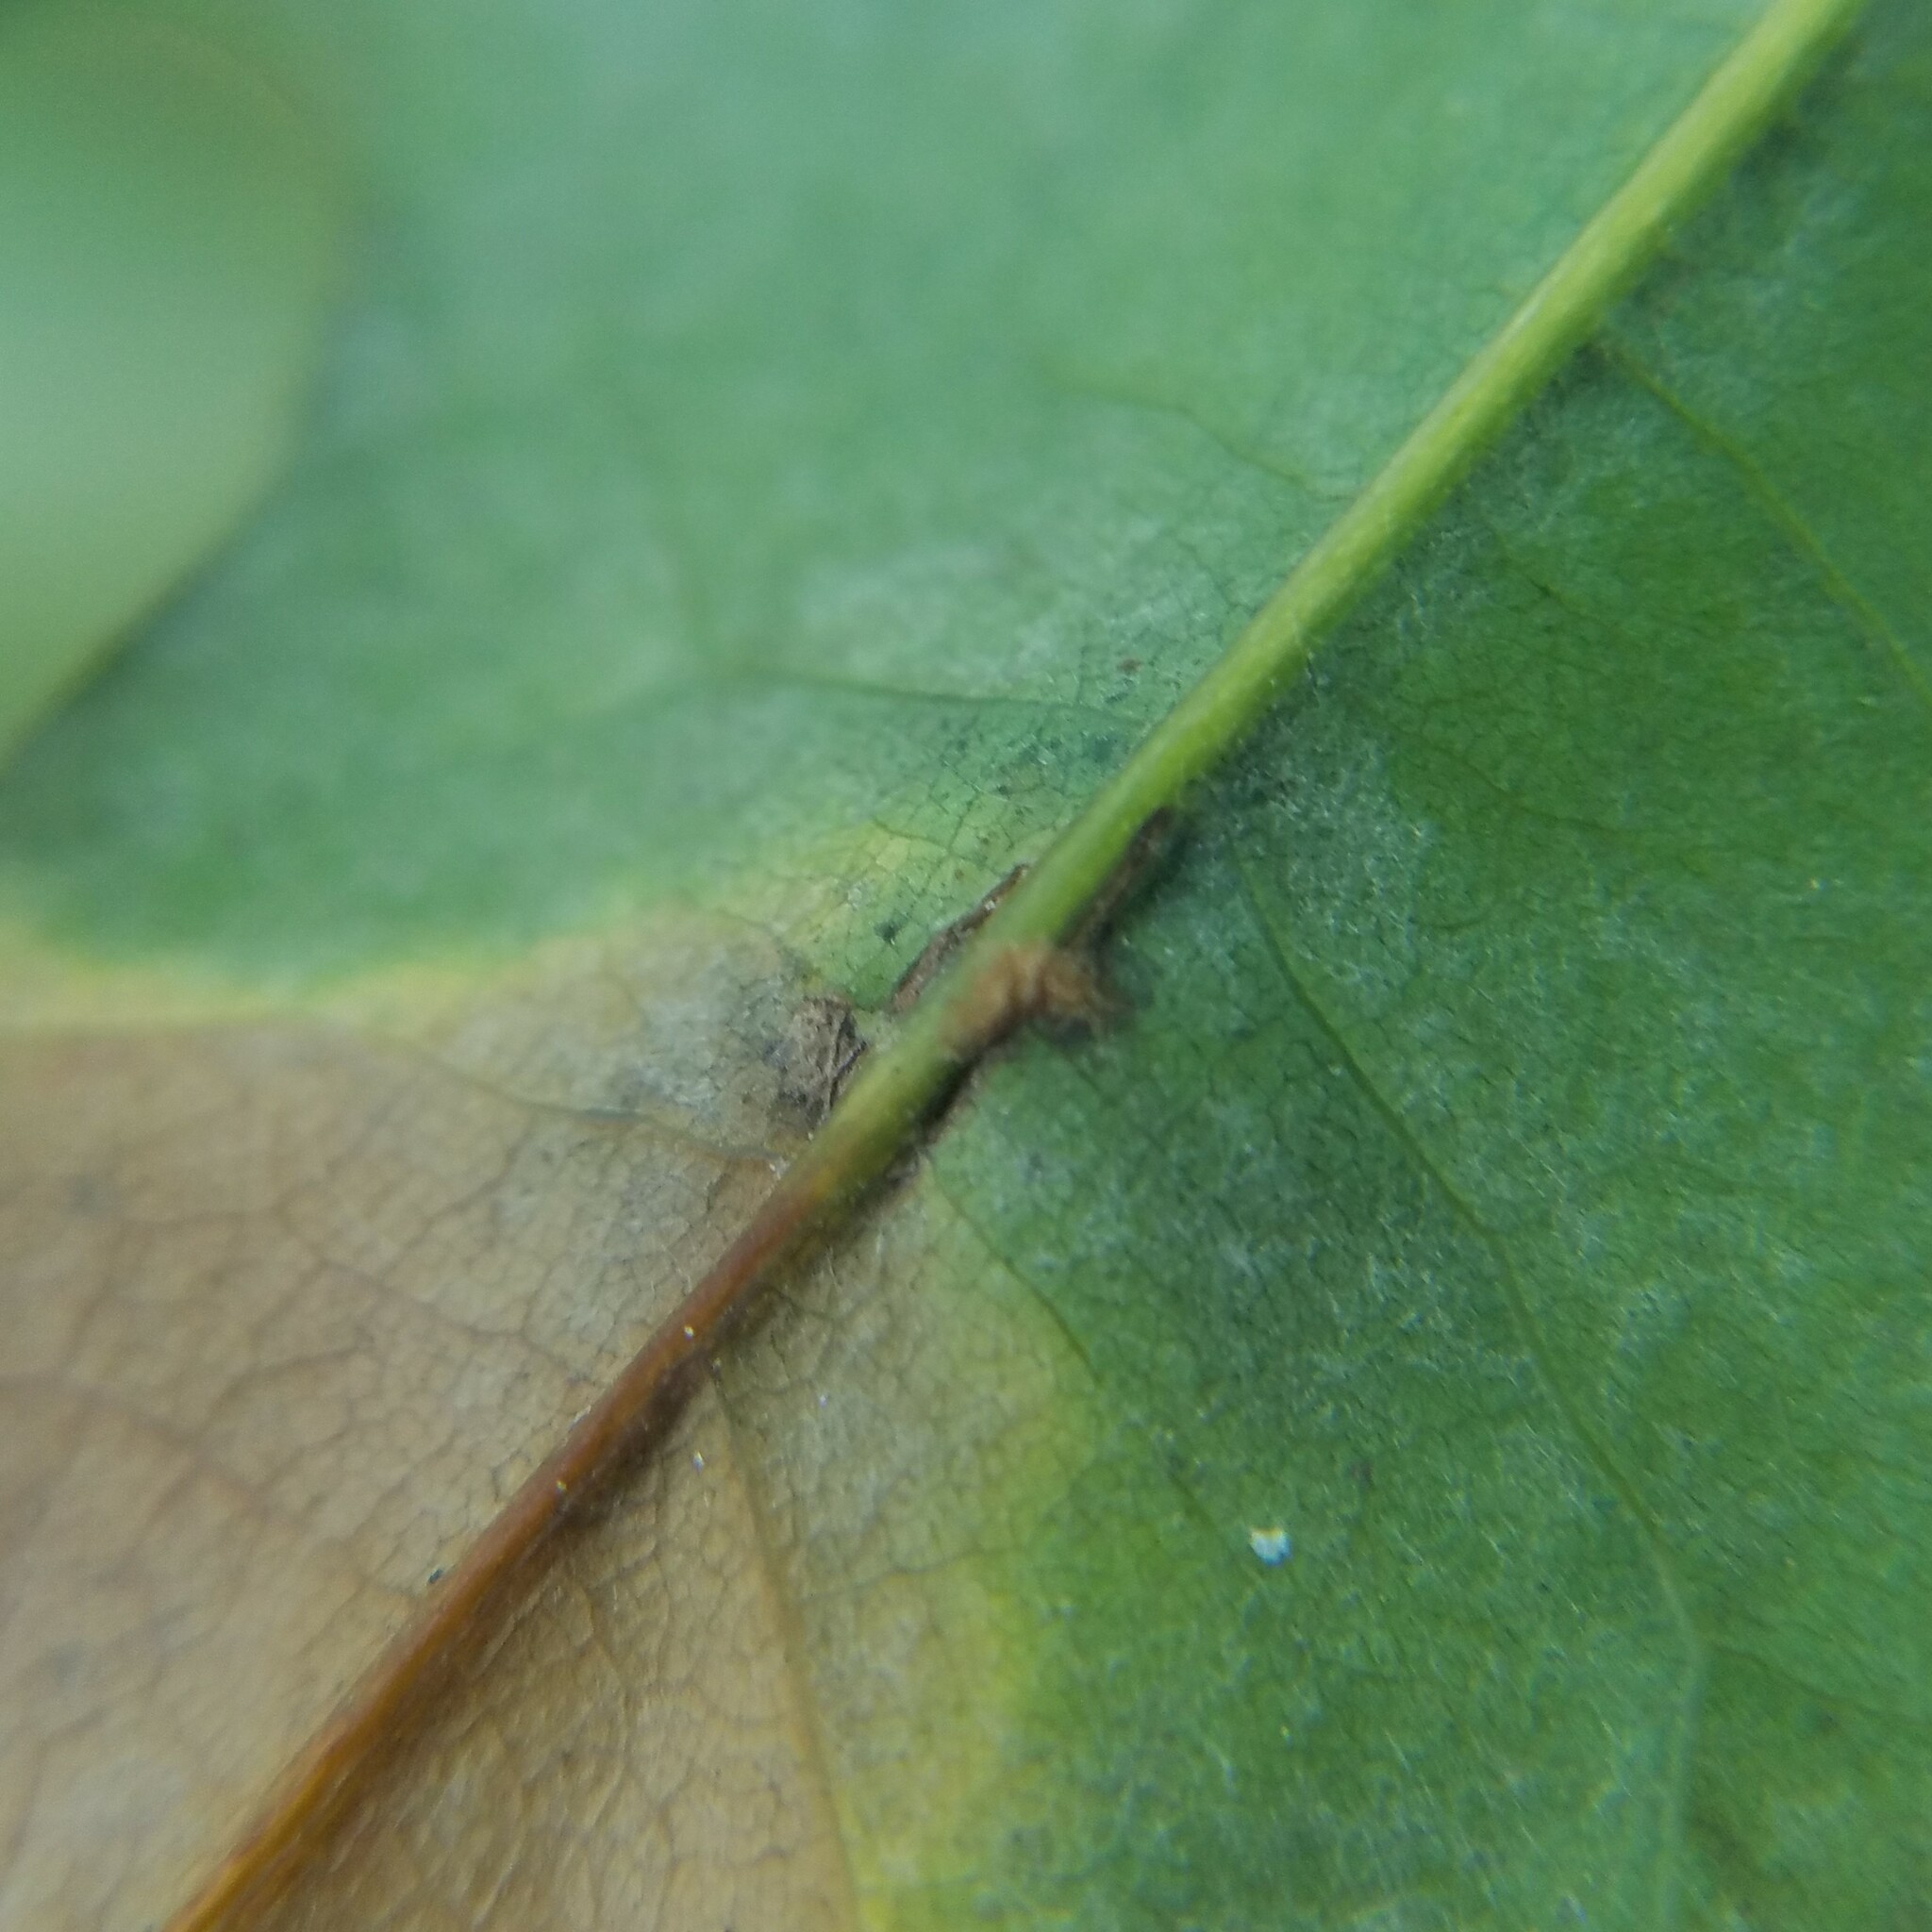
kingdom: Animalia
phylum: Arthropoda
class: Insecta
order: Hymenoptera
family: Cynipidae
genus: Callirhytis
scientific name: Callirhytis
